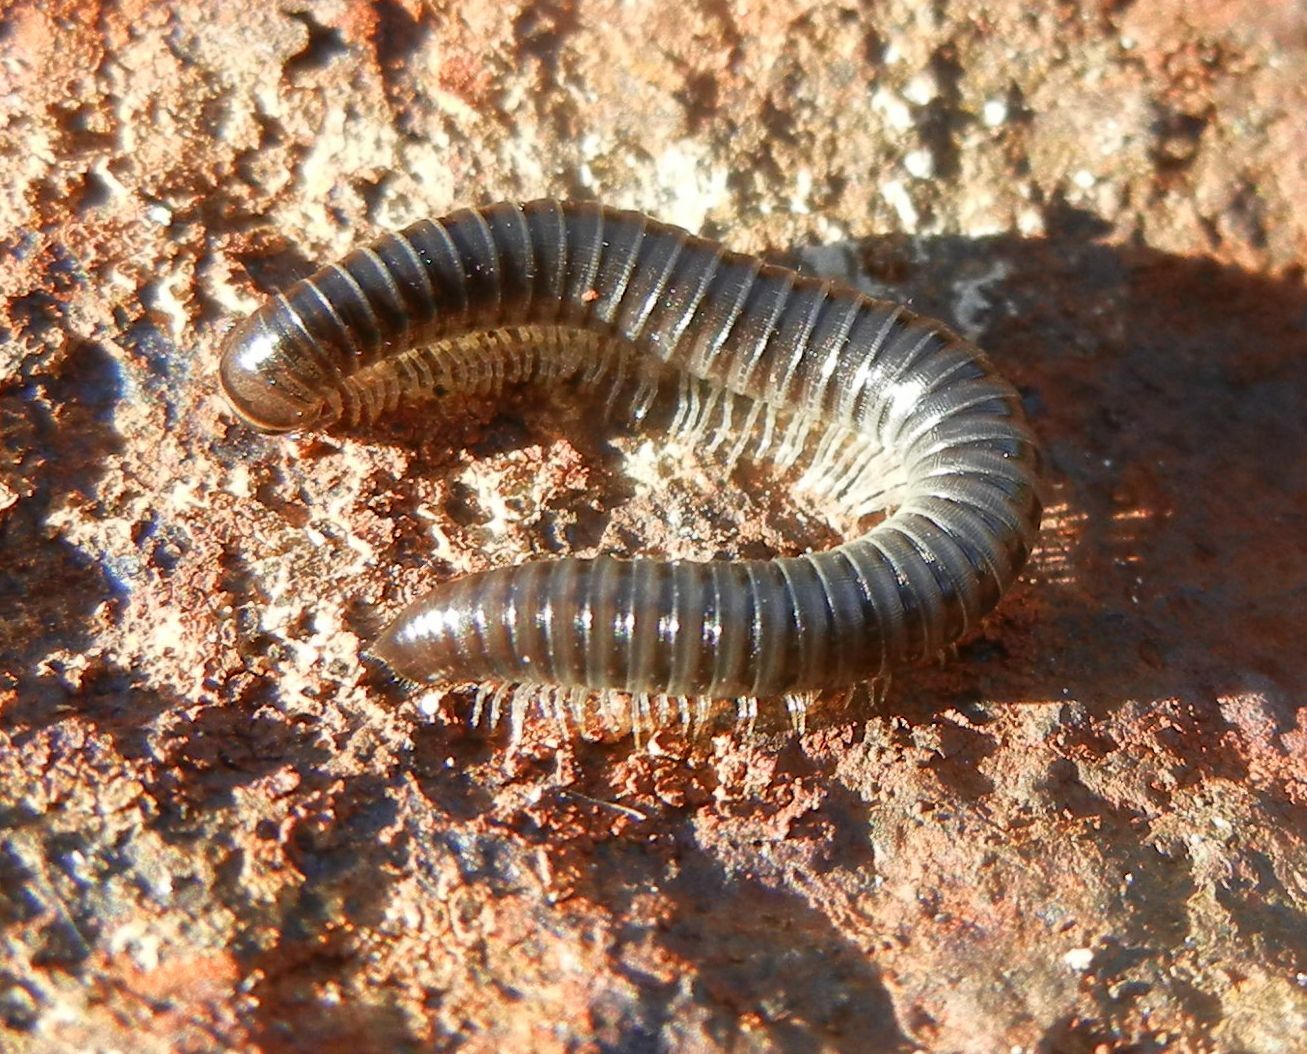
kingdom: Animalia
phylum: Arthropoda
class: Diplopoda
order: Julida
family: Julidae
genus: Tachypodoiulus
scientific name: Tachypodoiulus niger
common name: White-legged snake millipede
